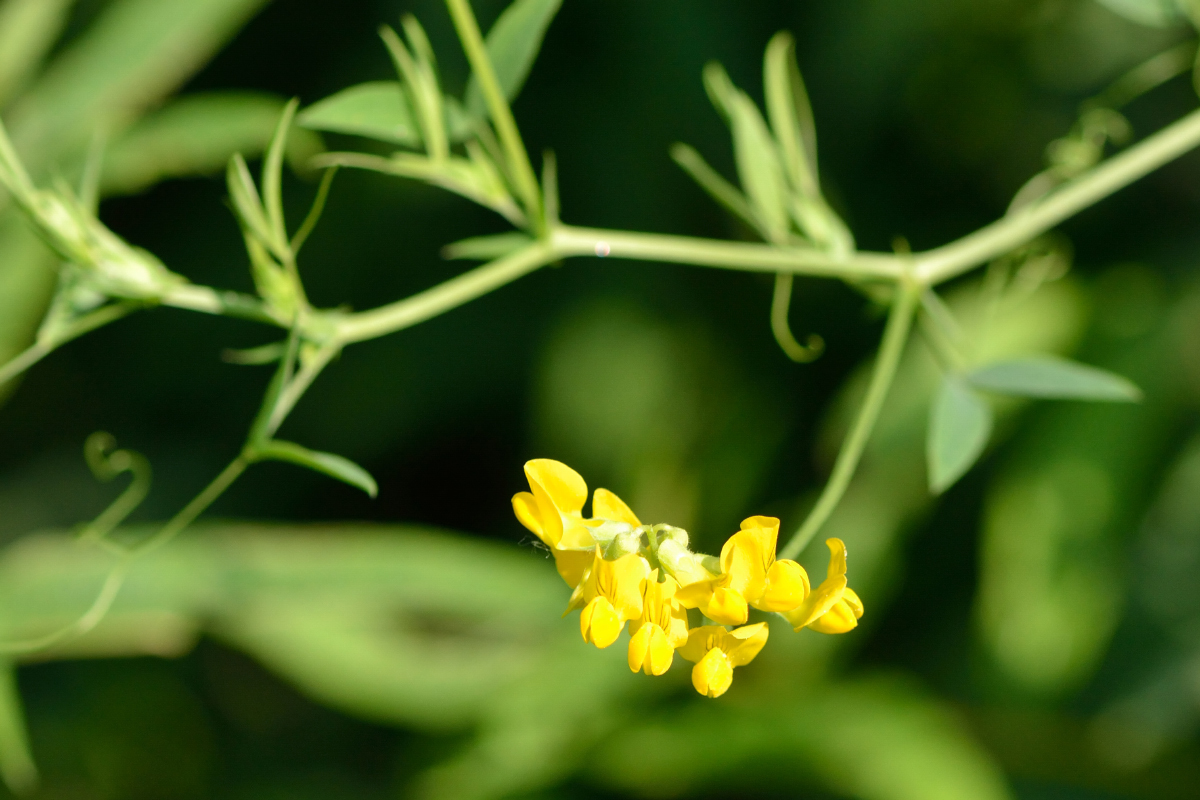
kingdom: Plantae
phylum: Tracheophyta
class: Magnoliopsida
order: Fabales
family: Fabaceae
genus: Lathyrus
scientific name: Lathyrus pratensis
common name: Meadow vetchling
